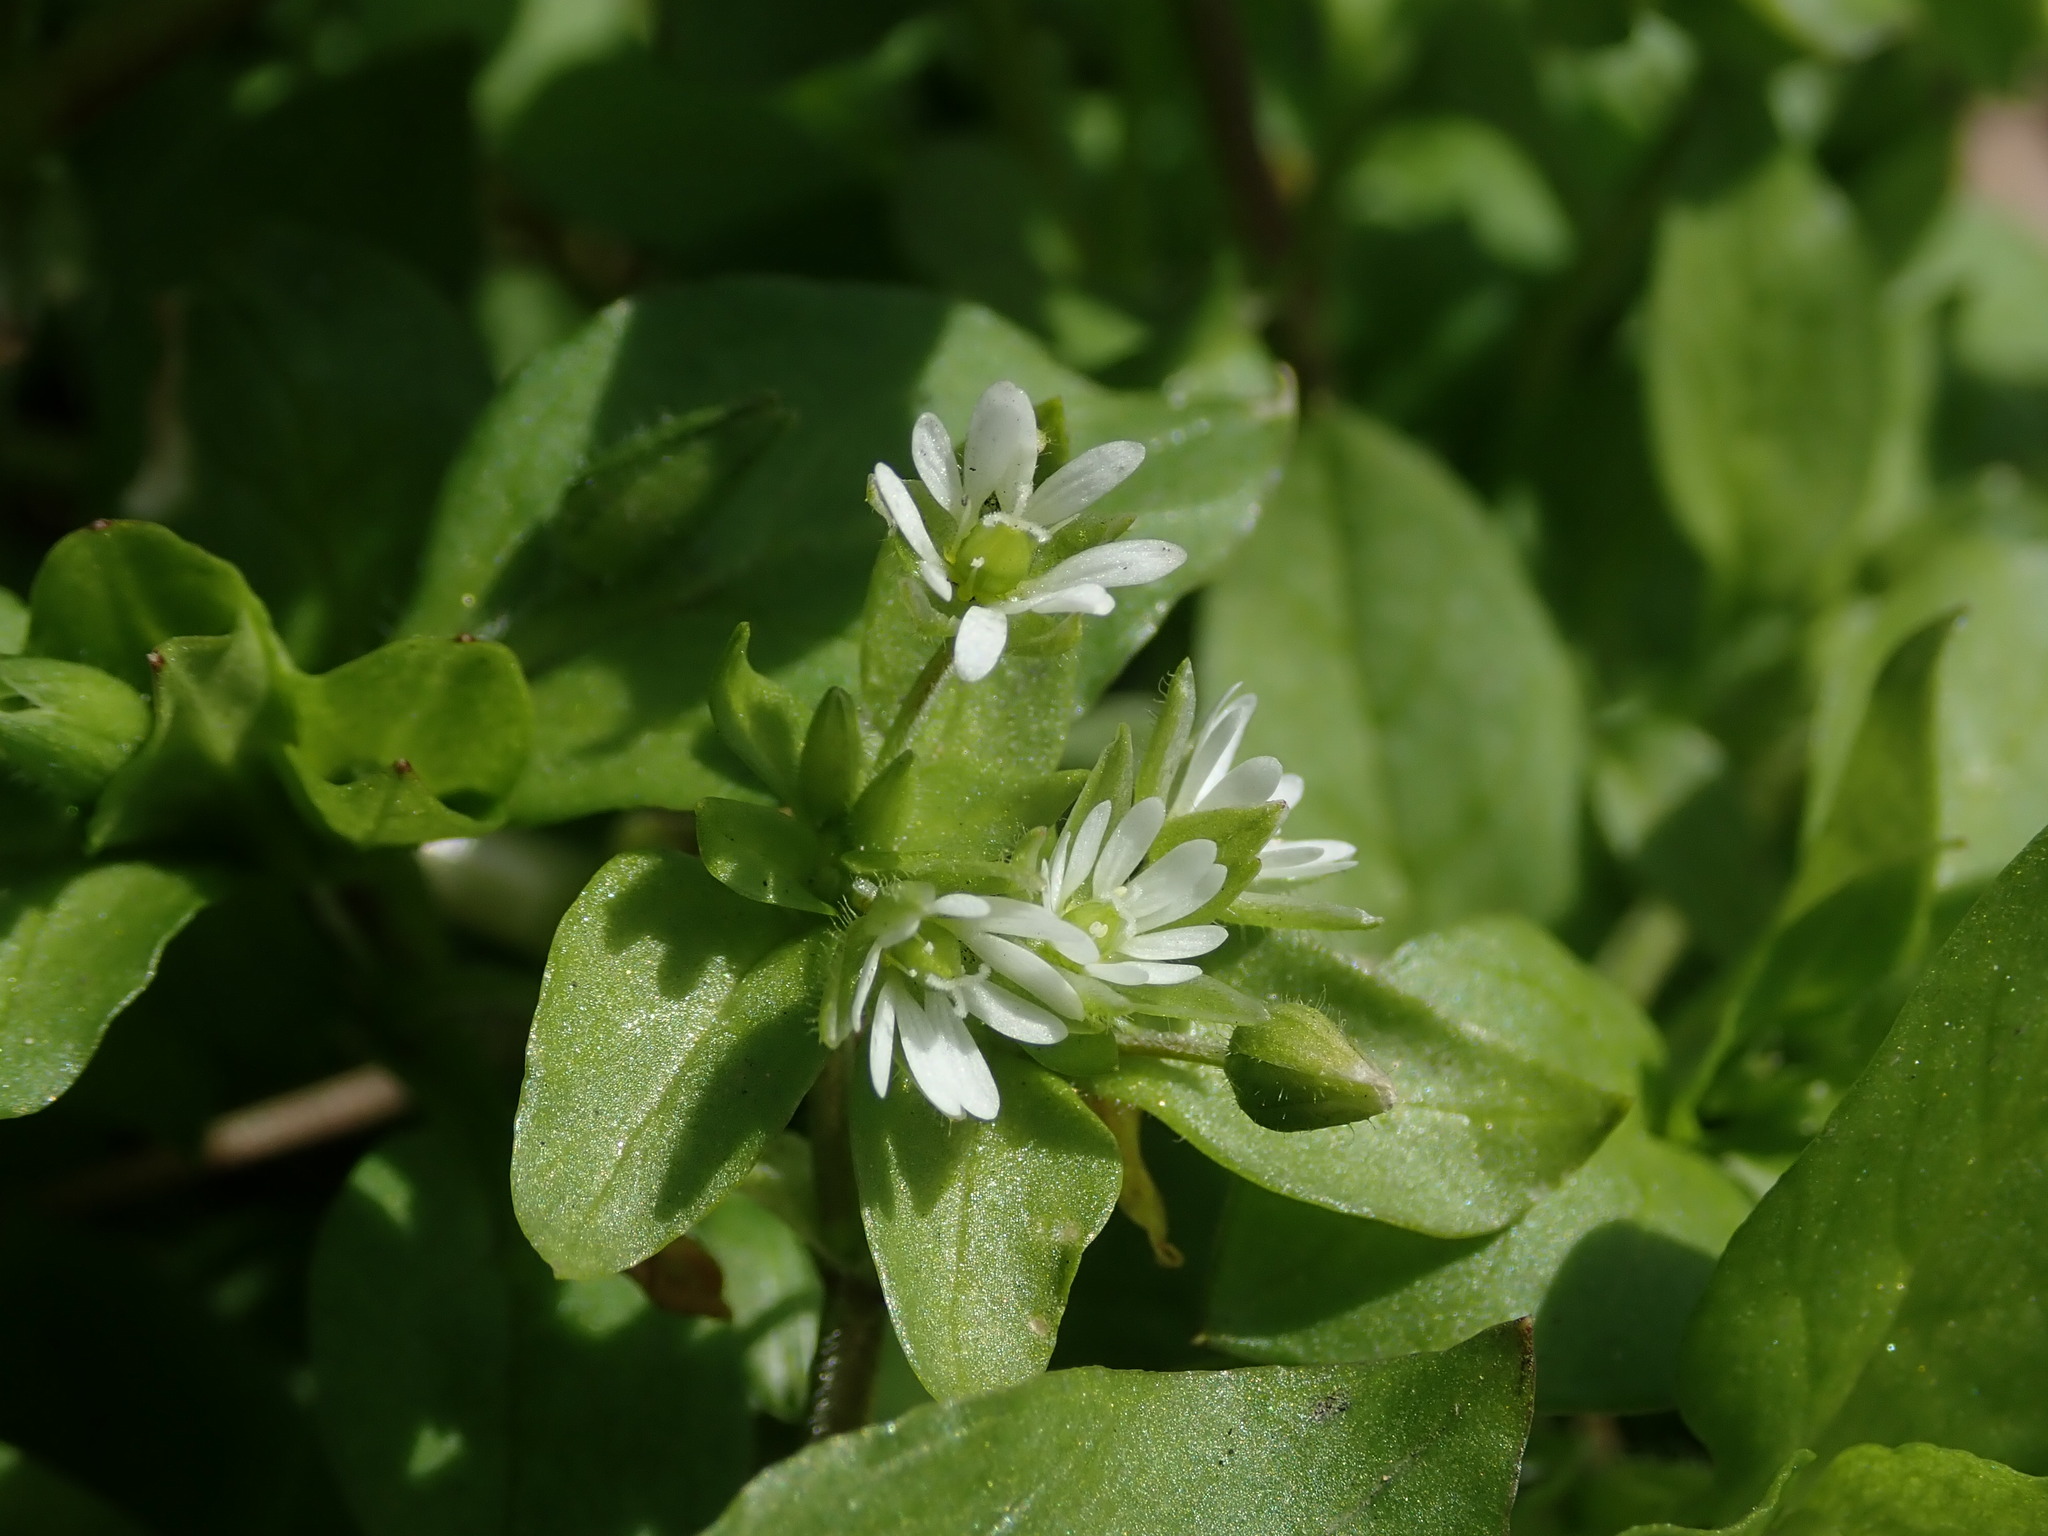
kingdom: Plantae
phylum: Tracheophyta
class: Magnoliopsida
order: Caryophyllales
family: Caryophyllaceae
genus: Stellaria
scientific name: Stellaria media
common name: Common chickweed
